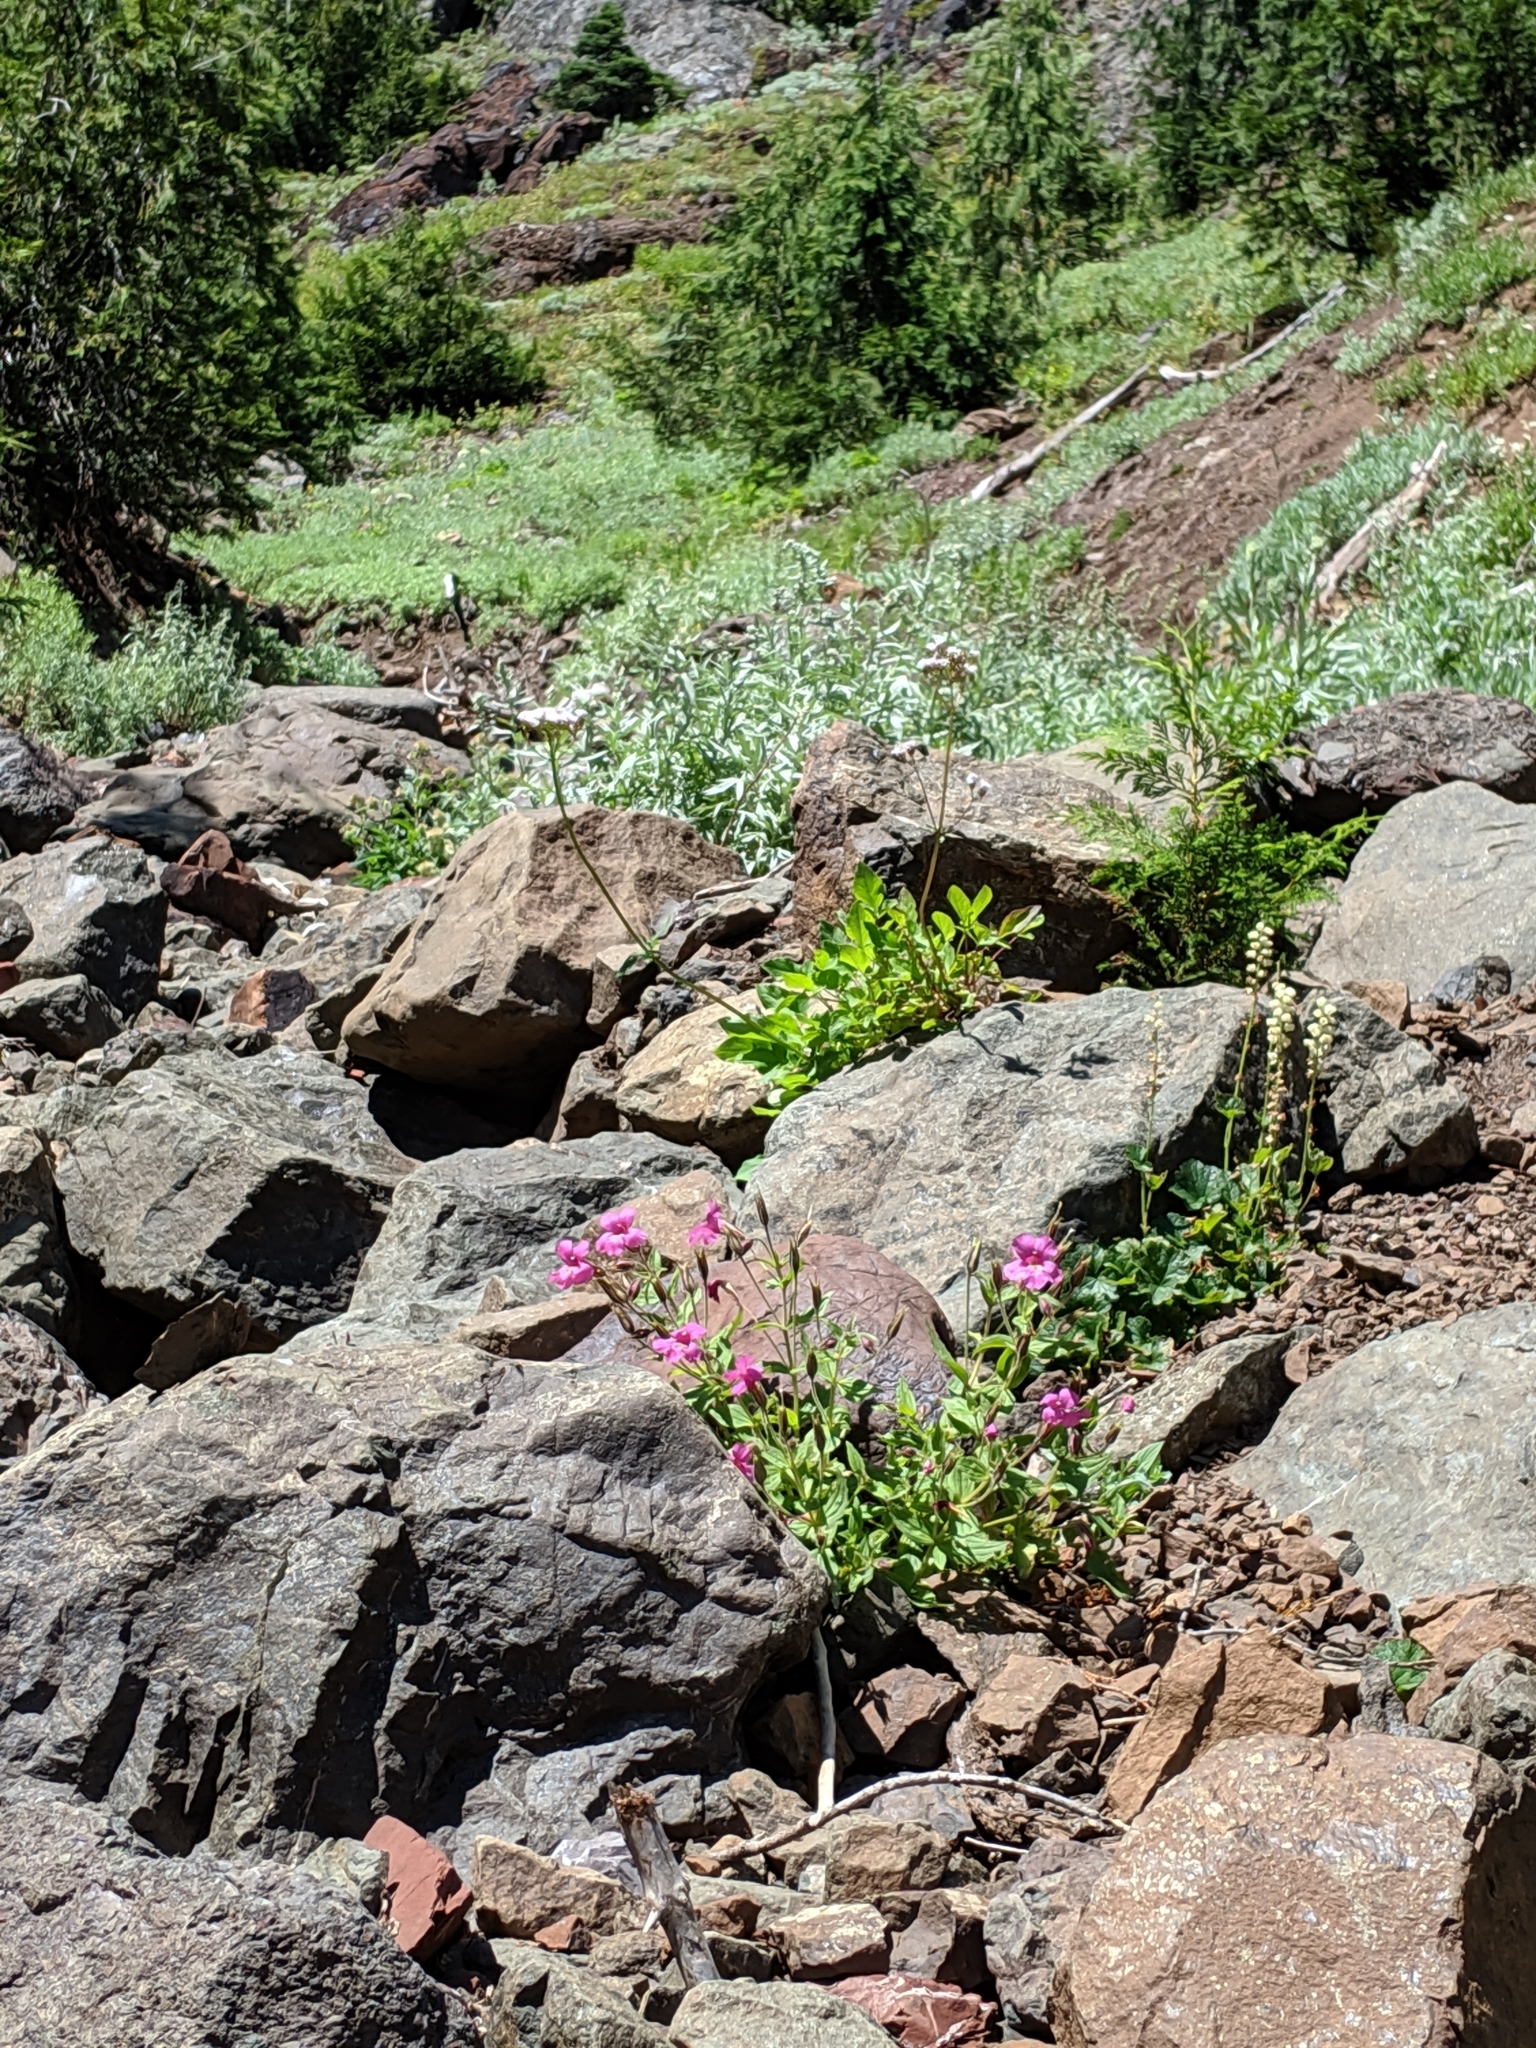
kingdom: Plantae
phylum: Tracheophyta
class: Magnoliopsida
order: Lamiales
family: Phrymaceae
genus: Erythranthe
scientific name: Erythranthe lewisii
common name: Lewis's monkey-flower
